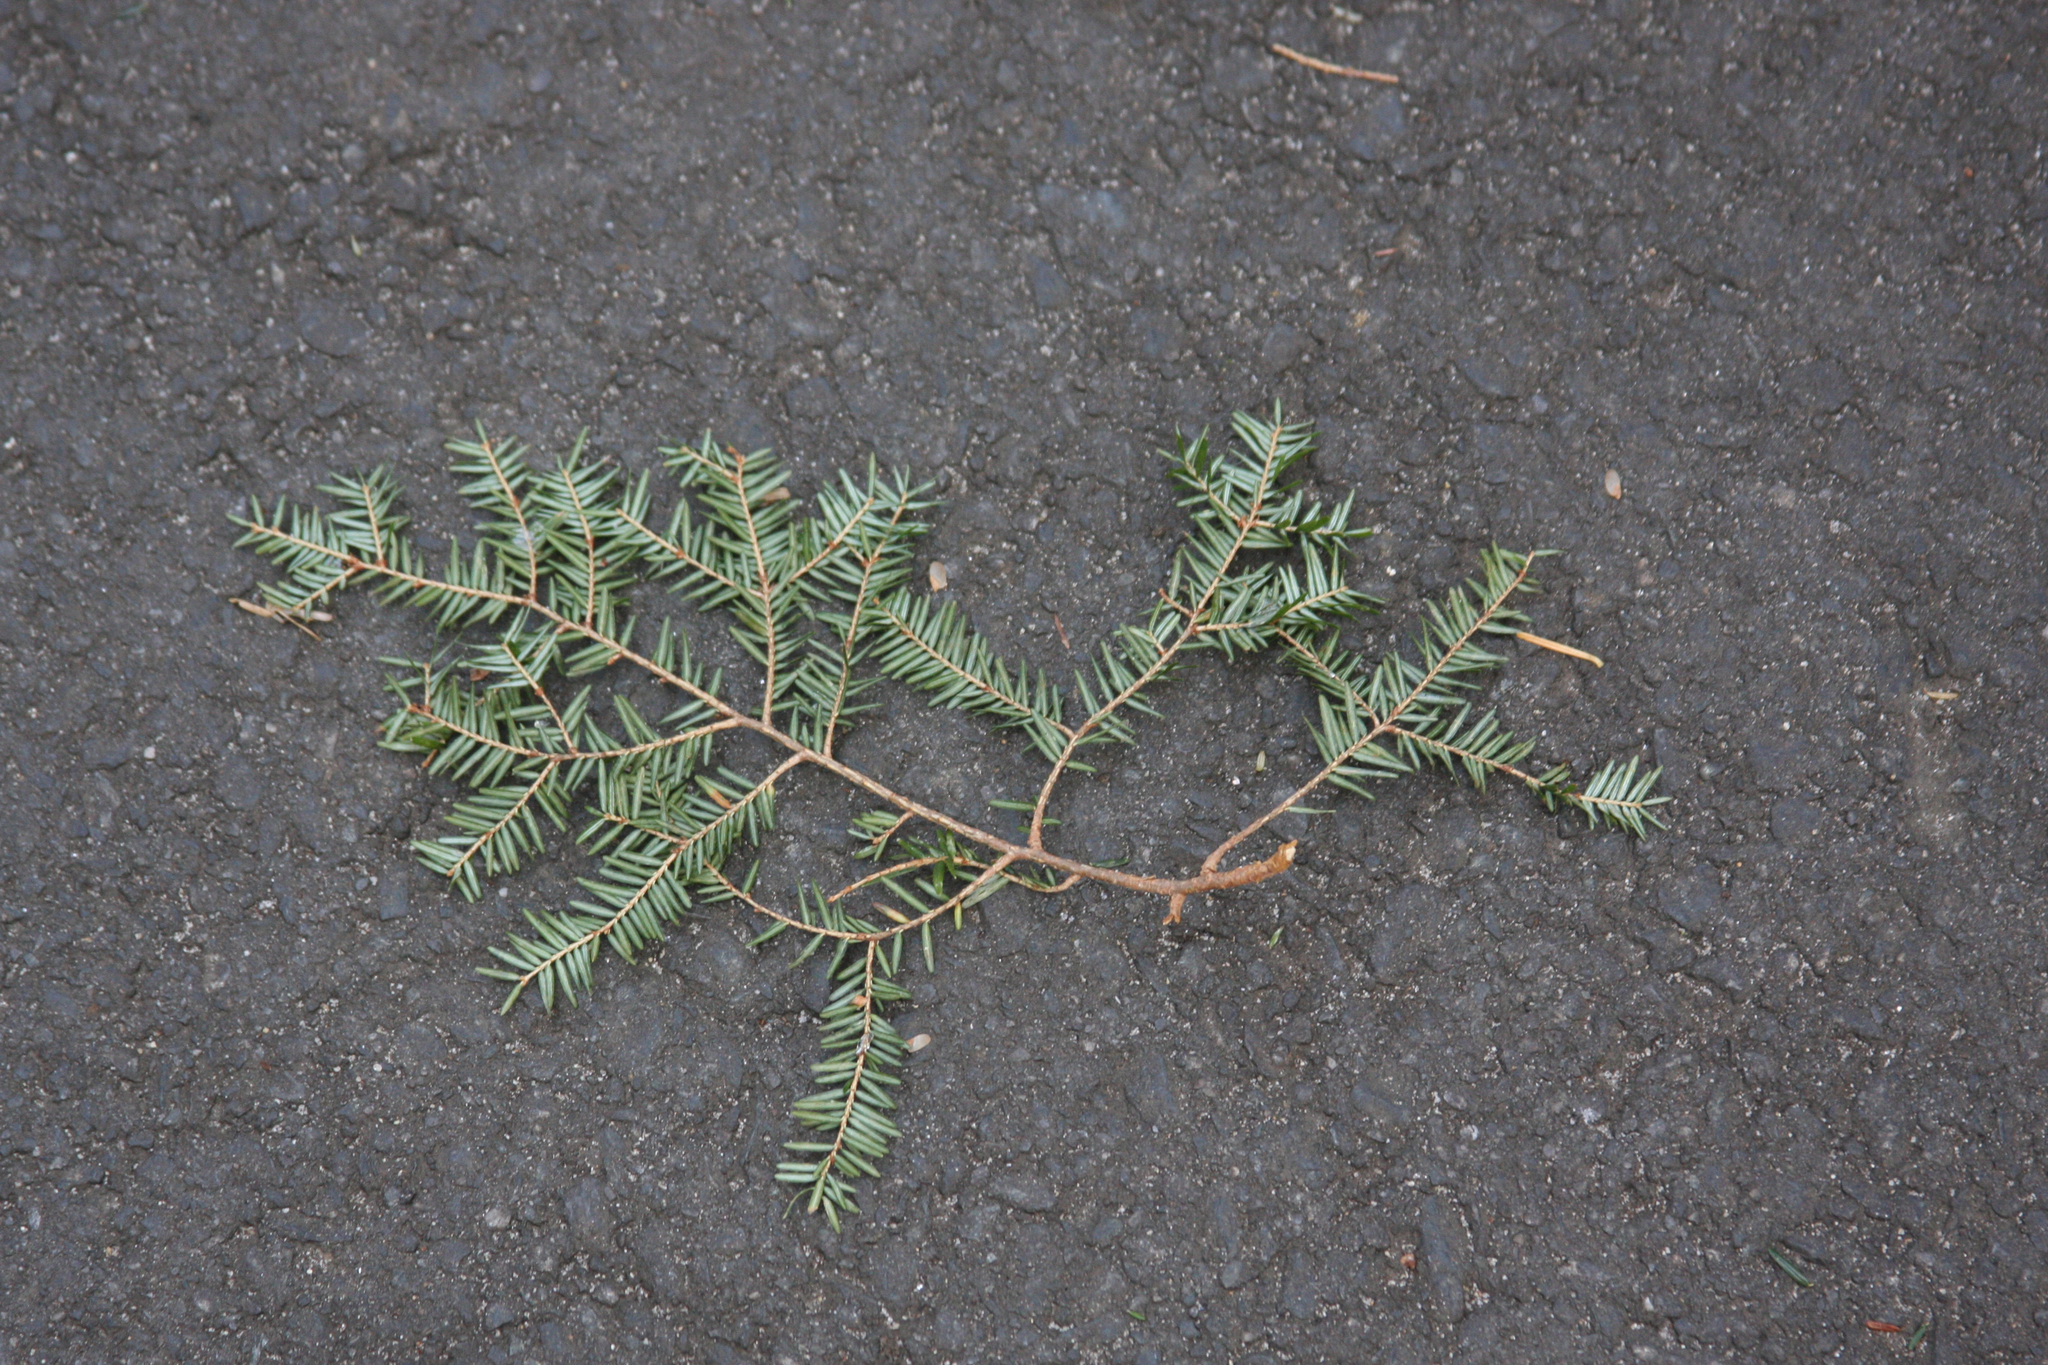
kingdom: Plantae
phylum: Tracheophyta
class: Pinopsida
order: Pinales
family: Pinaceae
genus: Tsuga
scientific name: Tsuga canadensis
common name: Eastern hemlock
